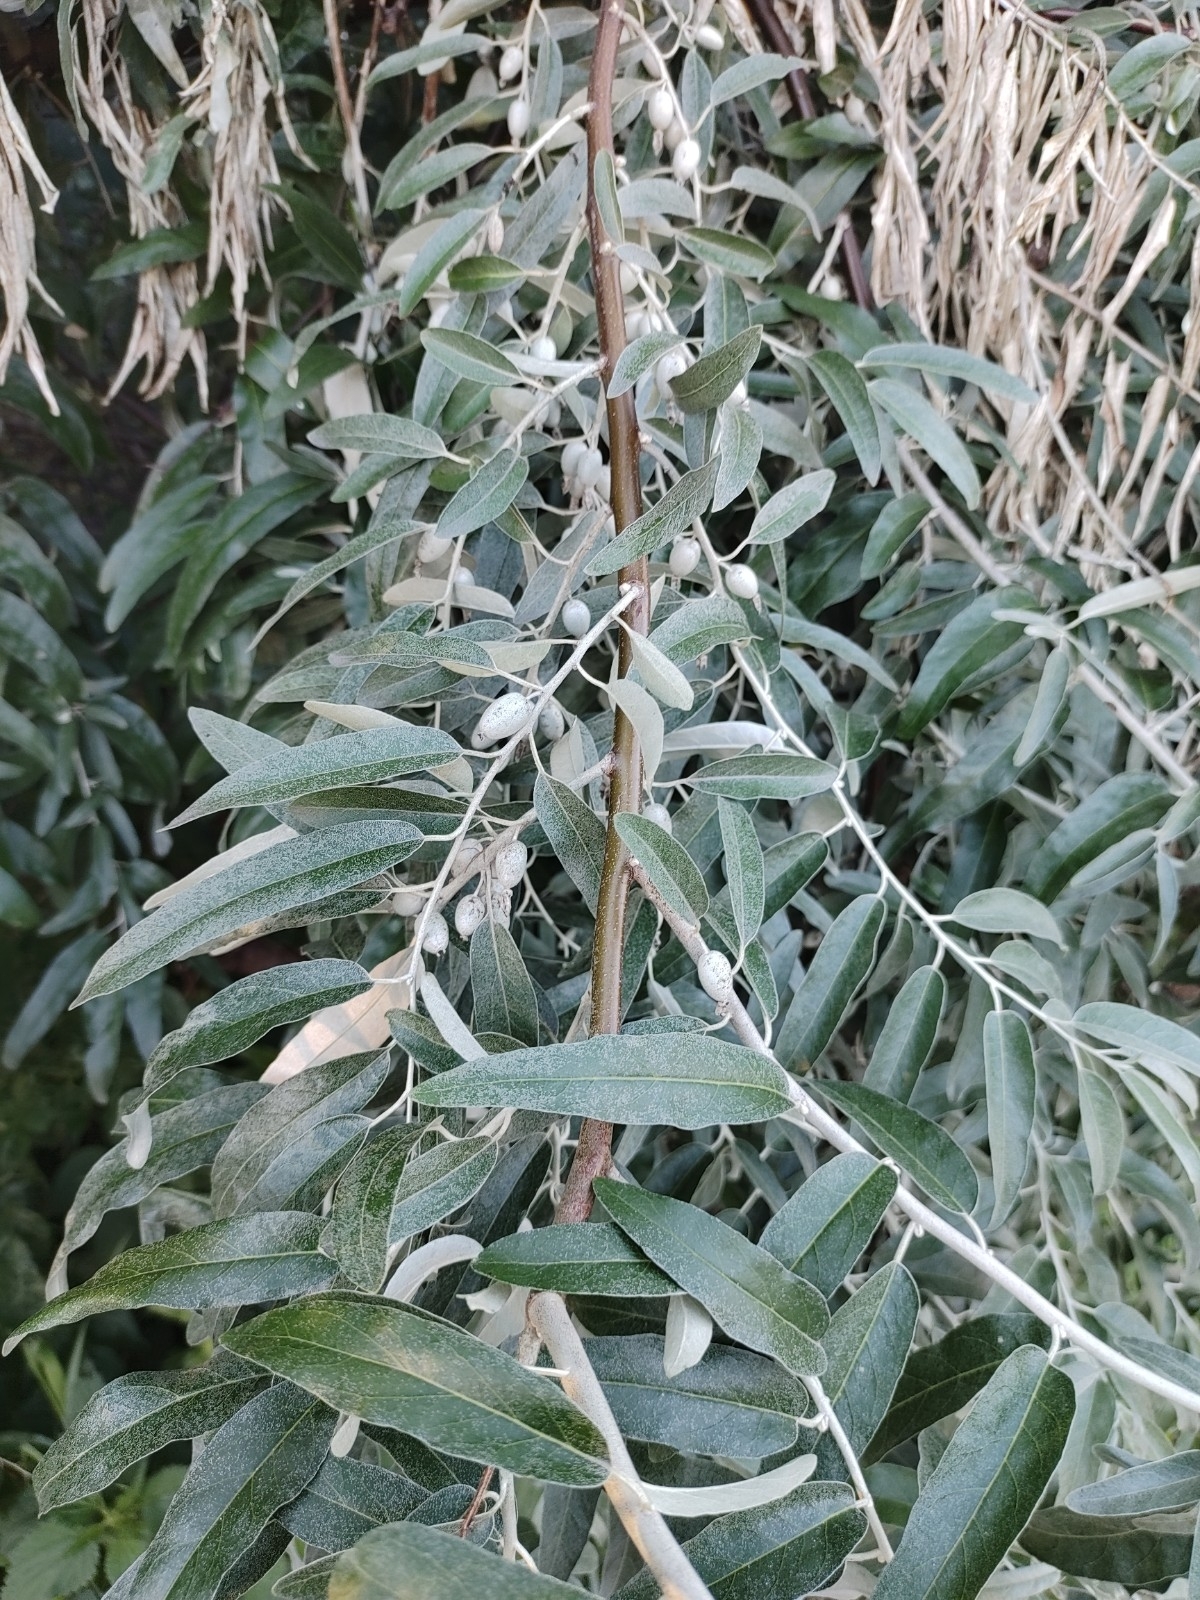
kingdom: Plantae
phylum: Tracheophyta
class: Magnoliopsida
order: Rosales
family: Elaeagnaceae
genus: Elaeagnus
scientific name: Elaeagnus angustifolia
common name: Russian olive
